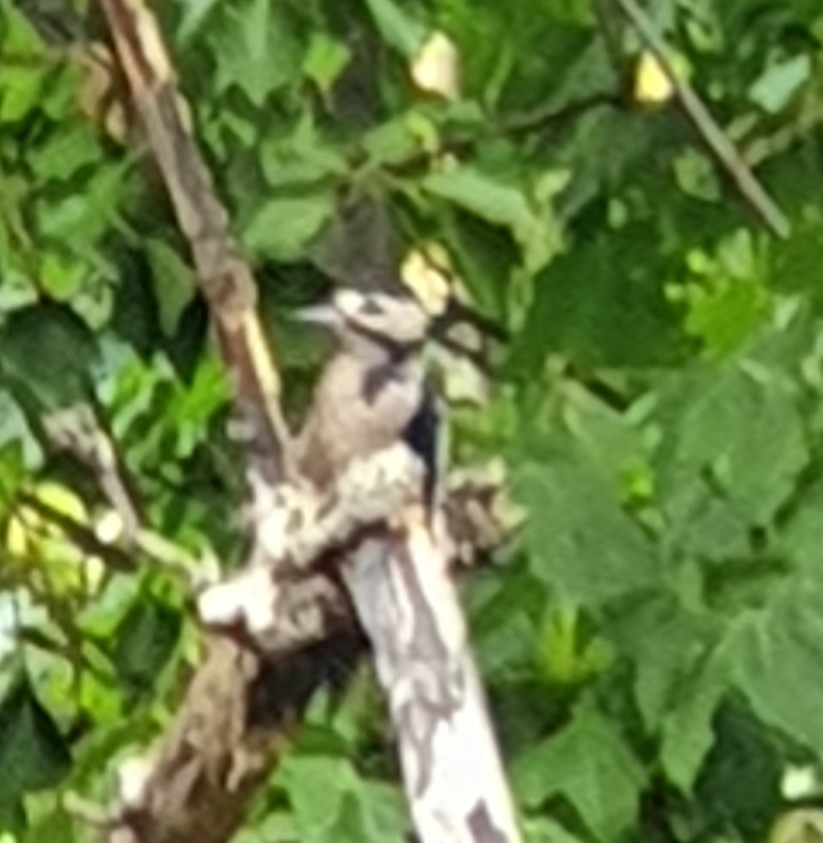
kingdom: Animalia
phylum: Chordata
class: Aves
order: Piciformes
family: Picidae
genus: Dendrocopos
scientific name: Dendrocopos major
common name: Great spotted woodpecker
